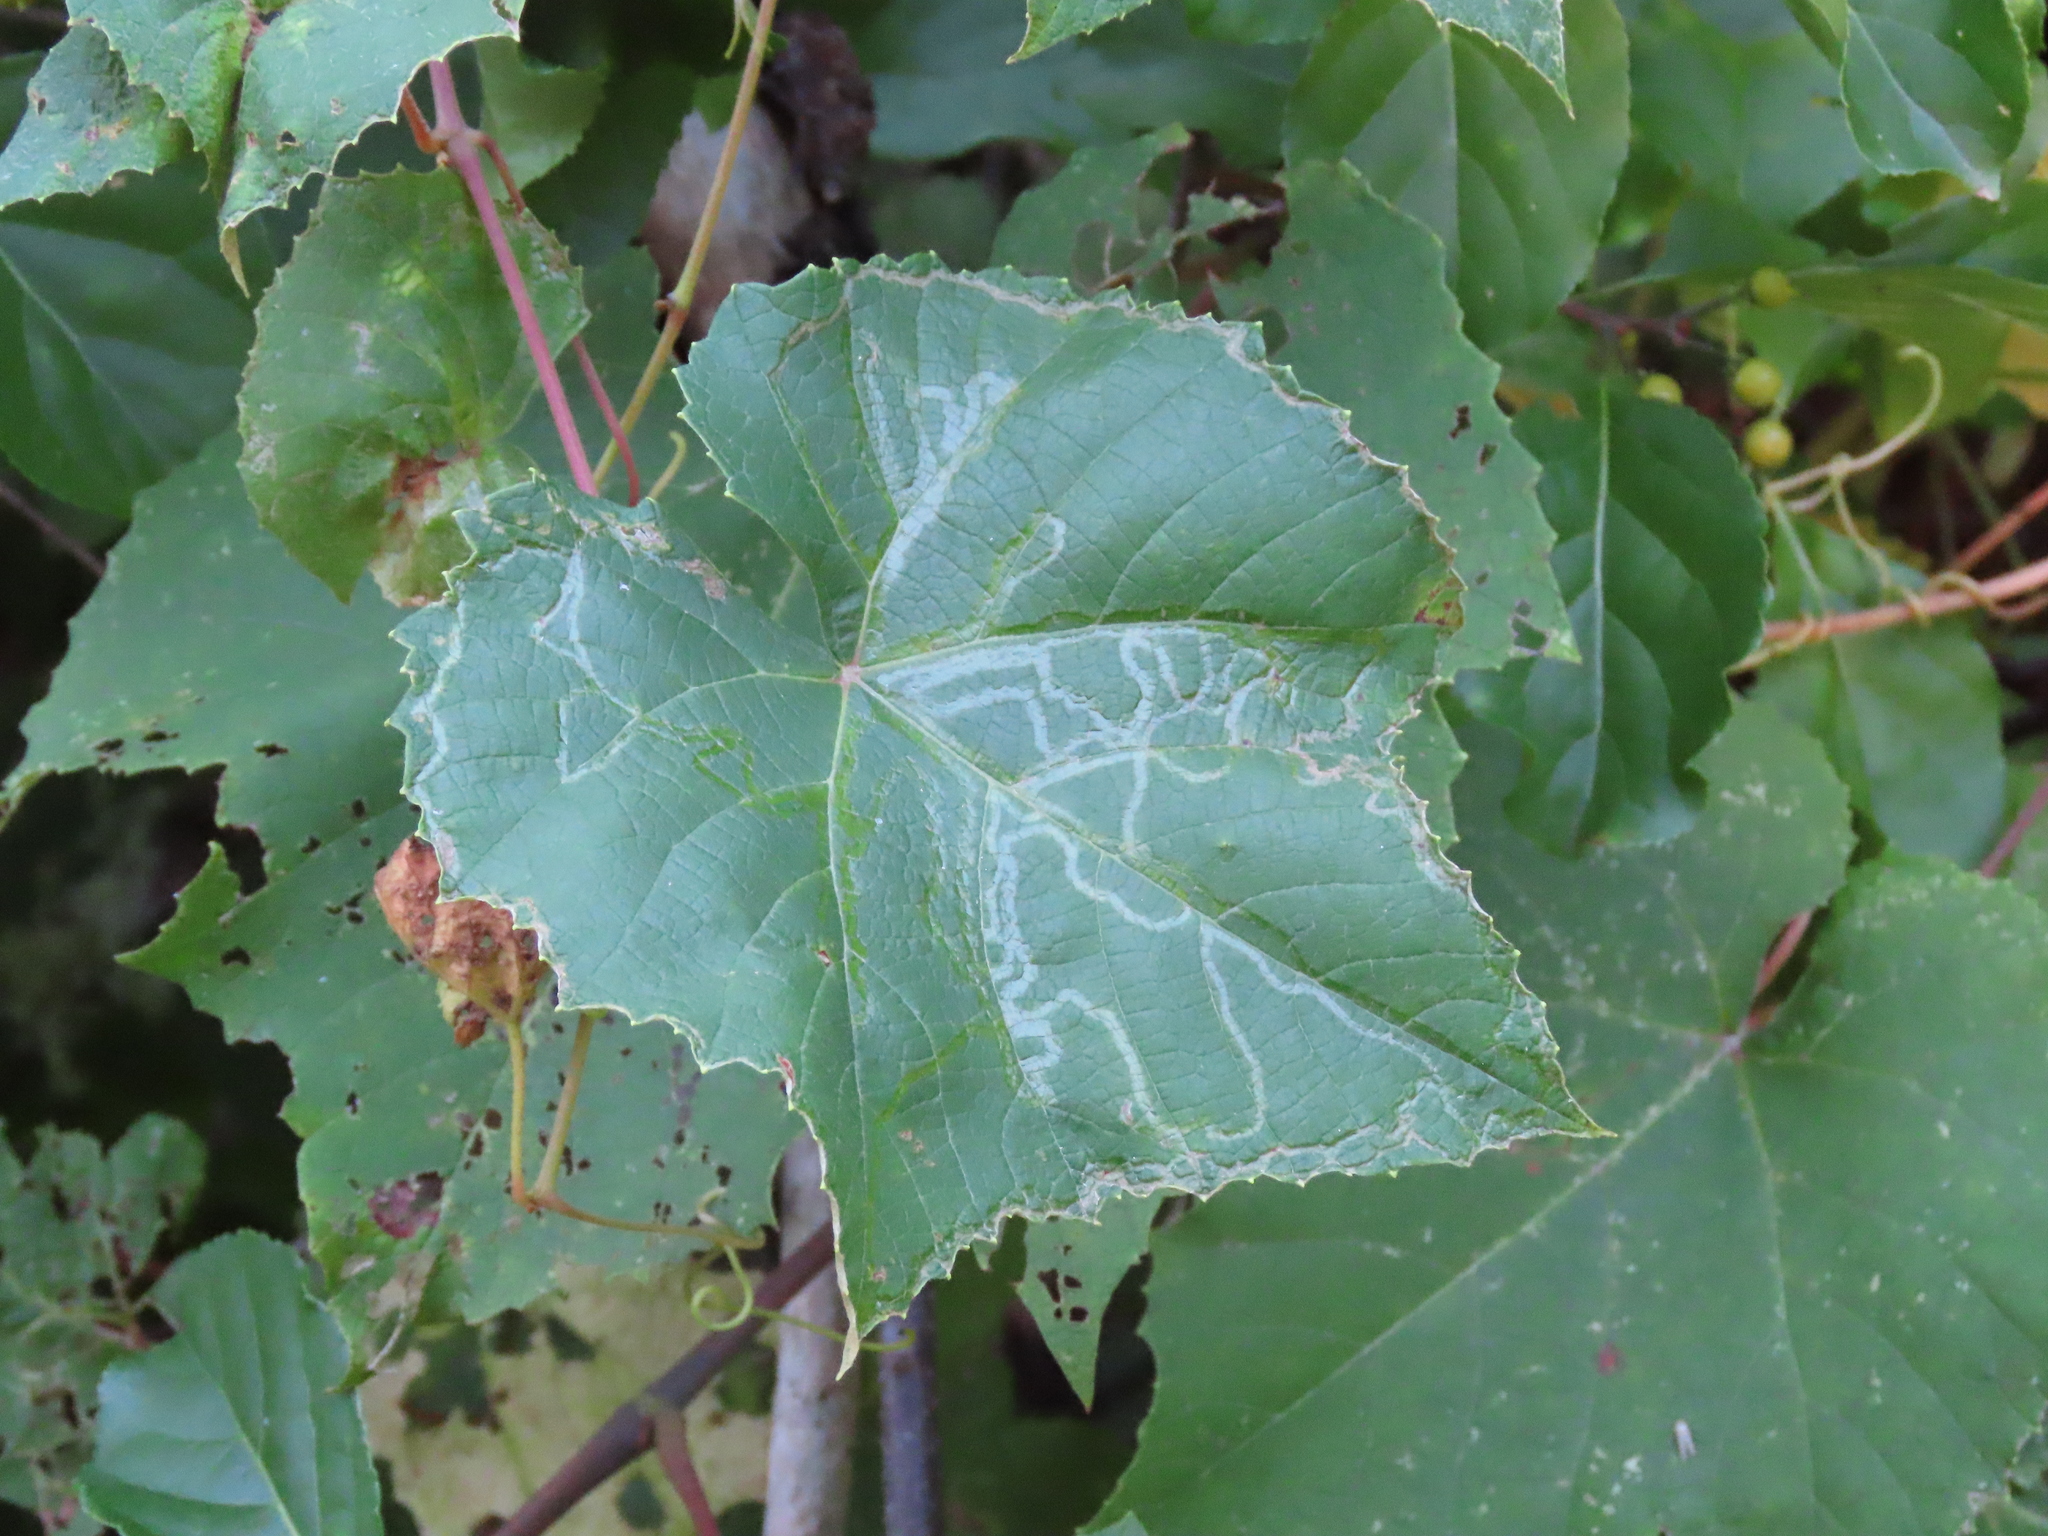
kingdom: Animalia
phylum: Arthropoda
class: Insecta
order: Lepidoptera
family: Gracillariidae
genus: Phyllocnistis
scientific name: Phyllocnistis vitegenella
